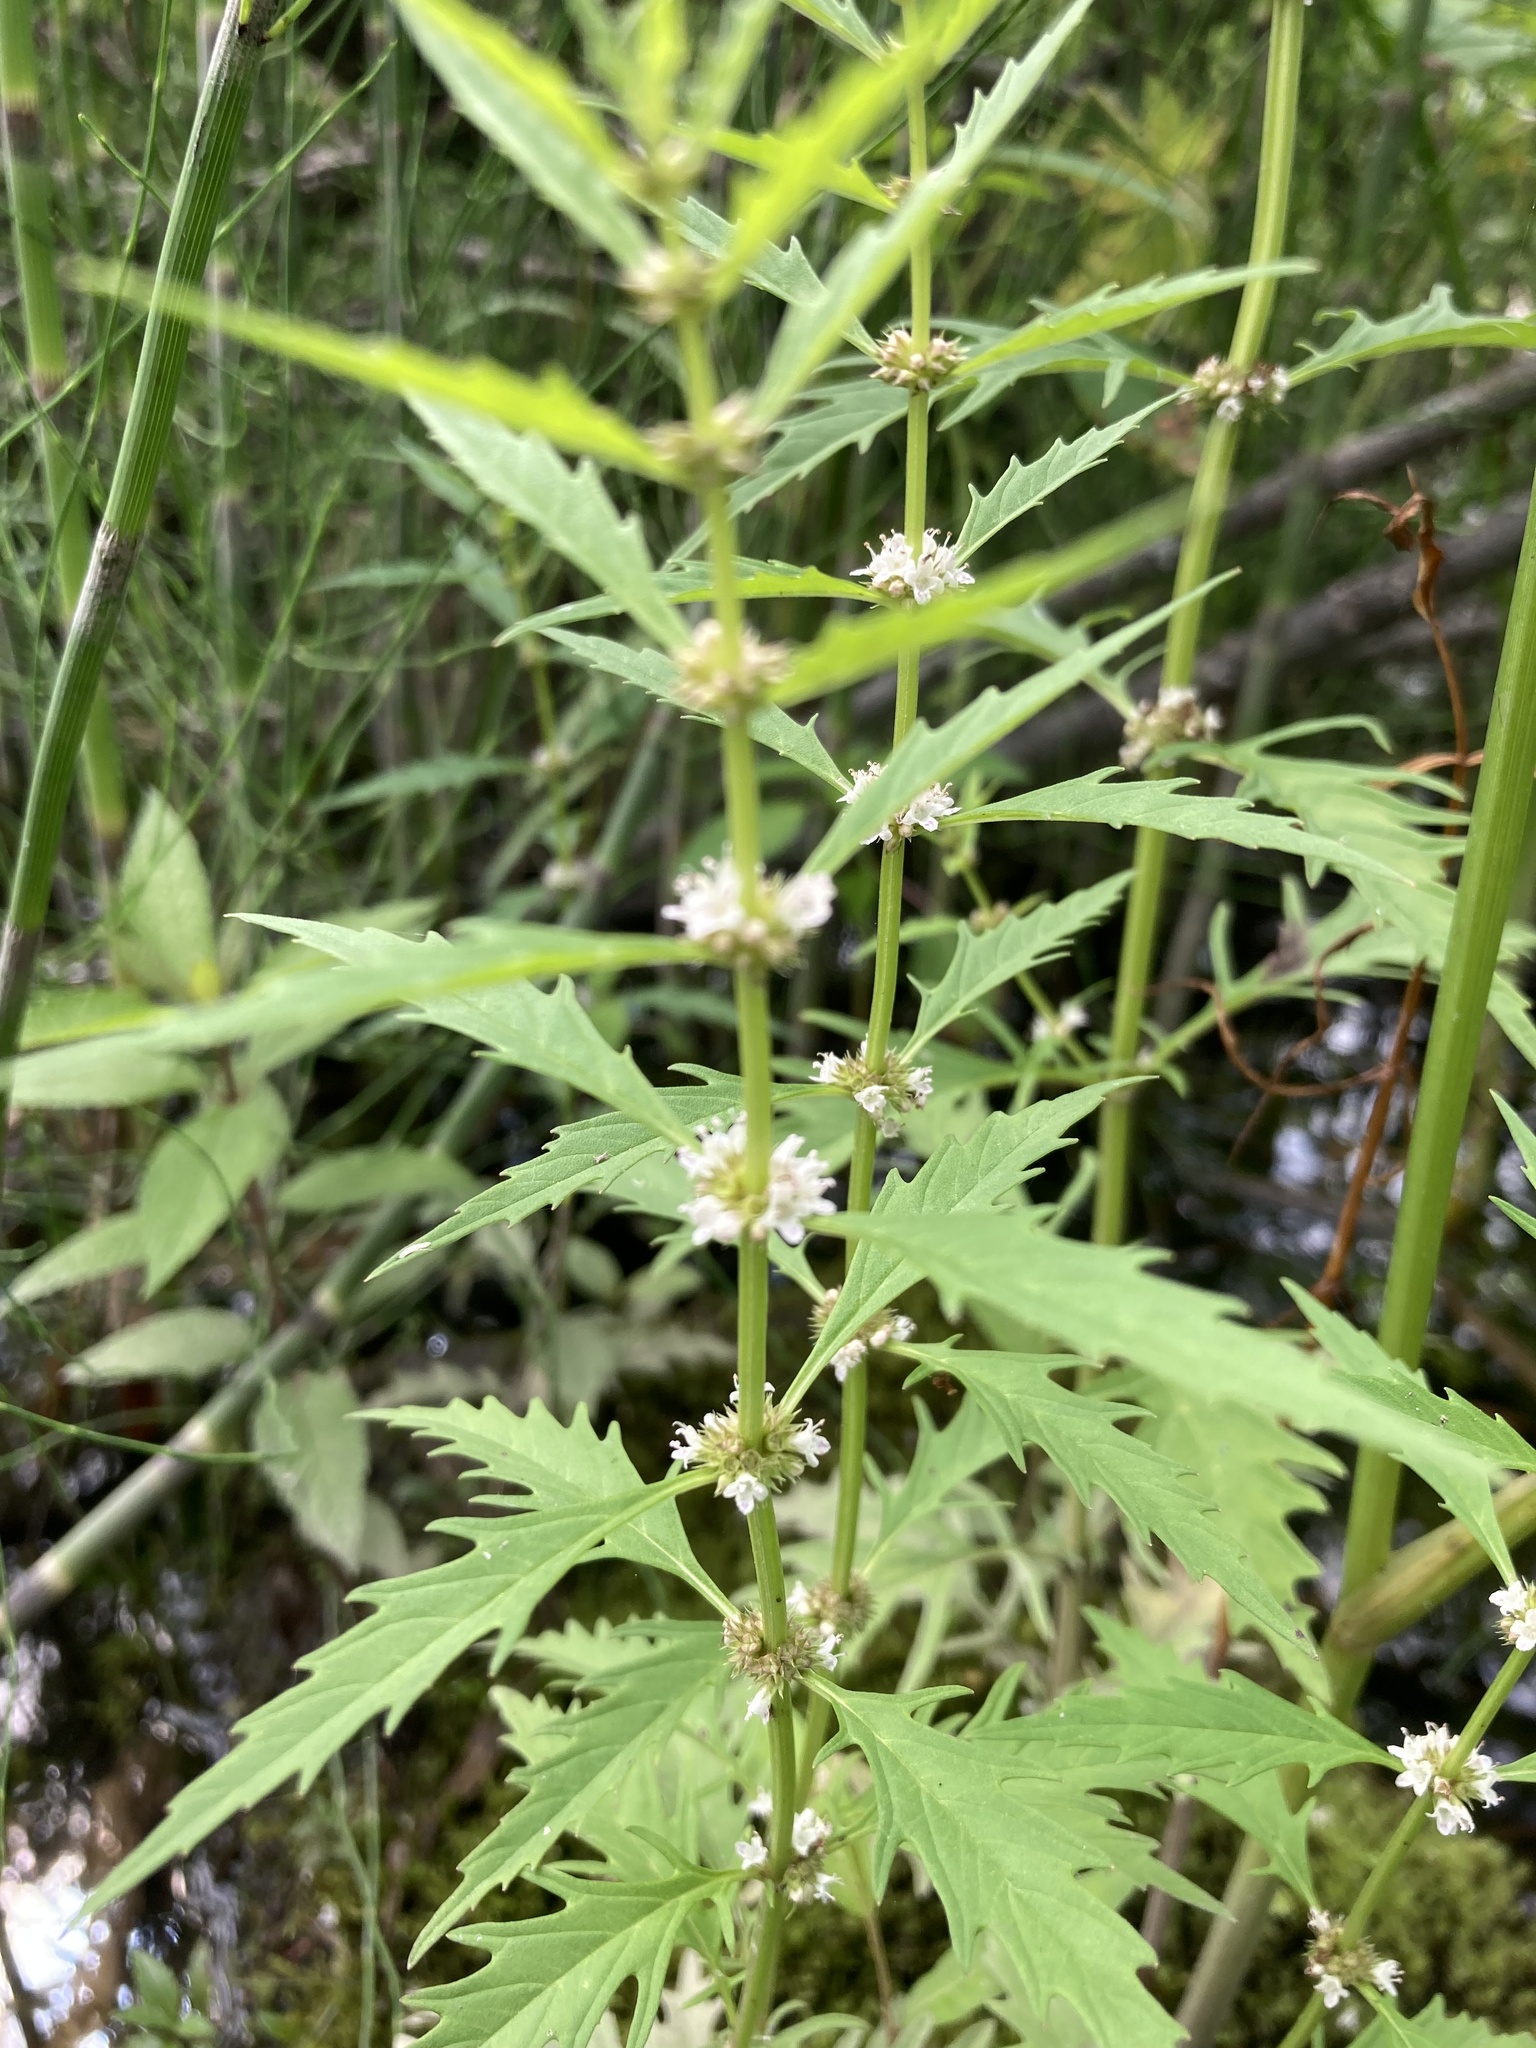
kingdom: Plantae
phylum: Tracheophyta
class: Magnoliopsida
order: Lamiales
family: Lamiaceae
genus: Lycopus
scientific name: Lycopus americanus
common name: American bugleweed
